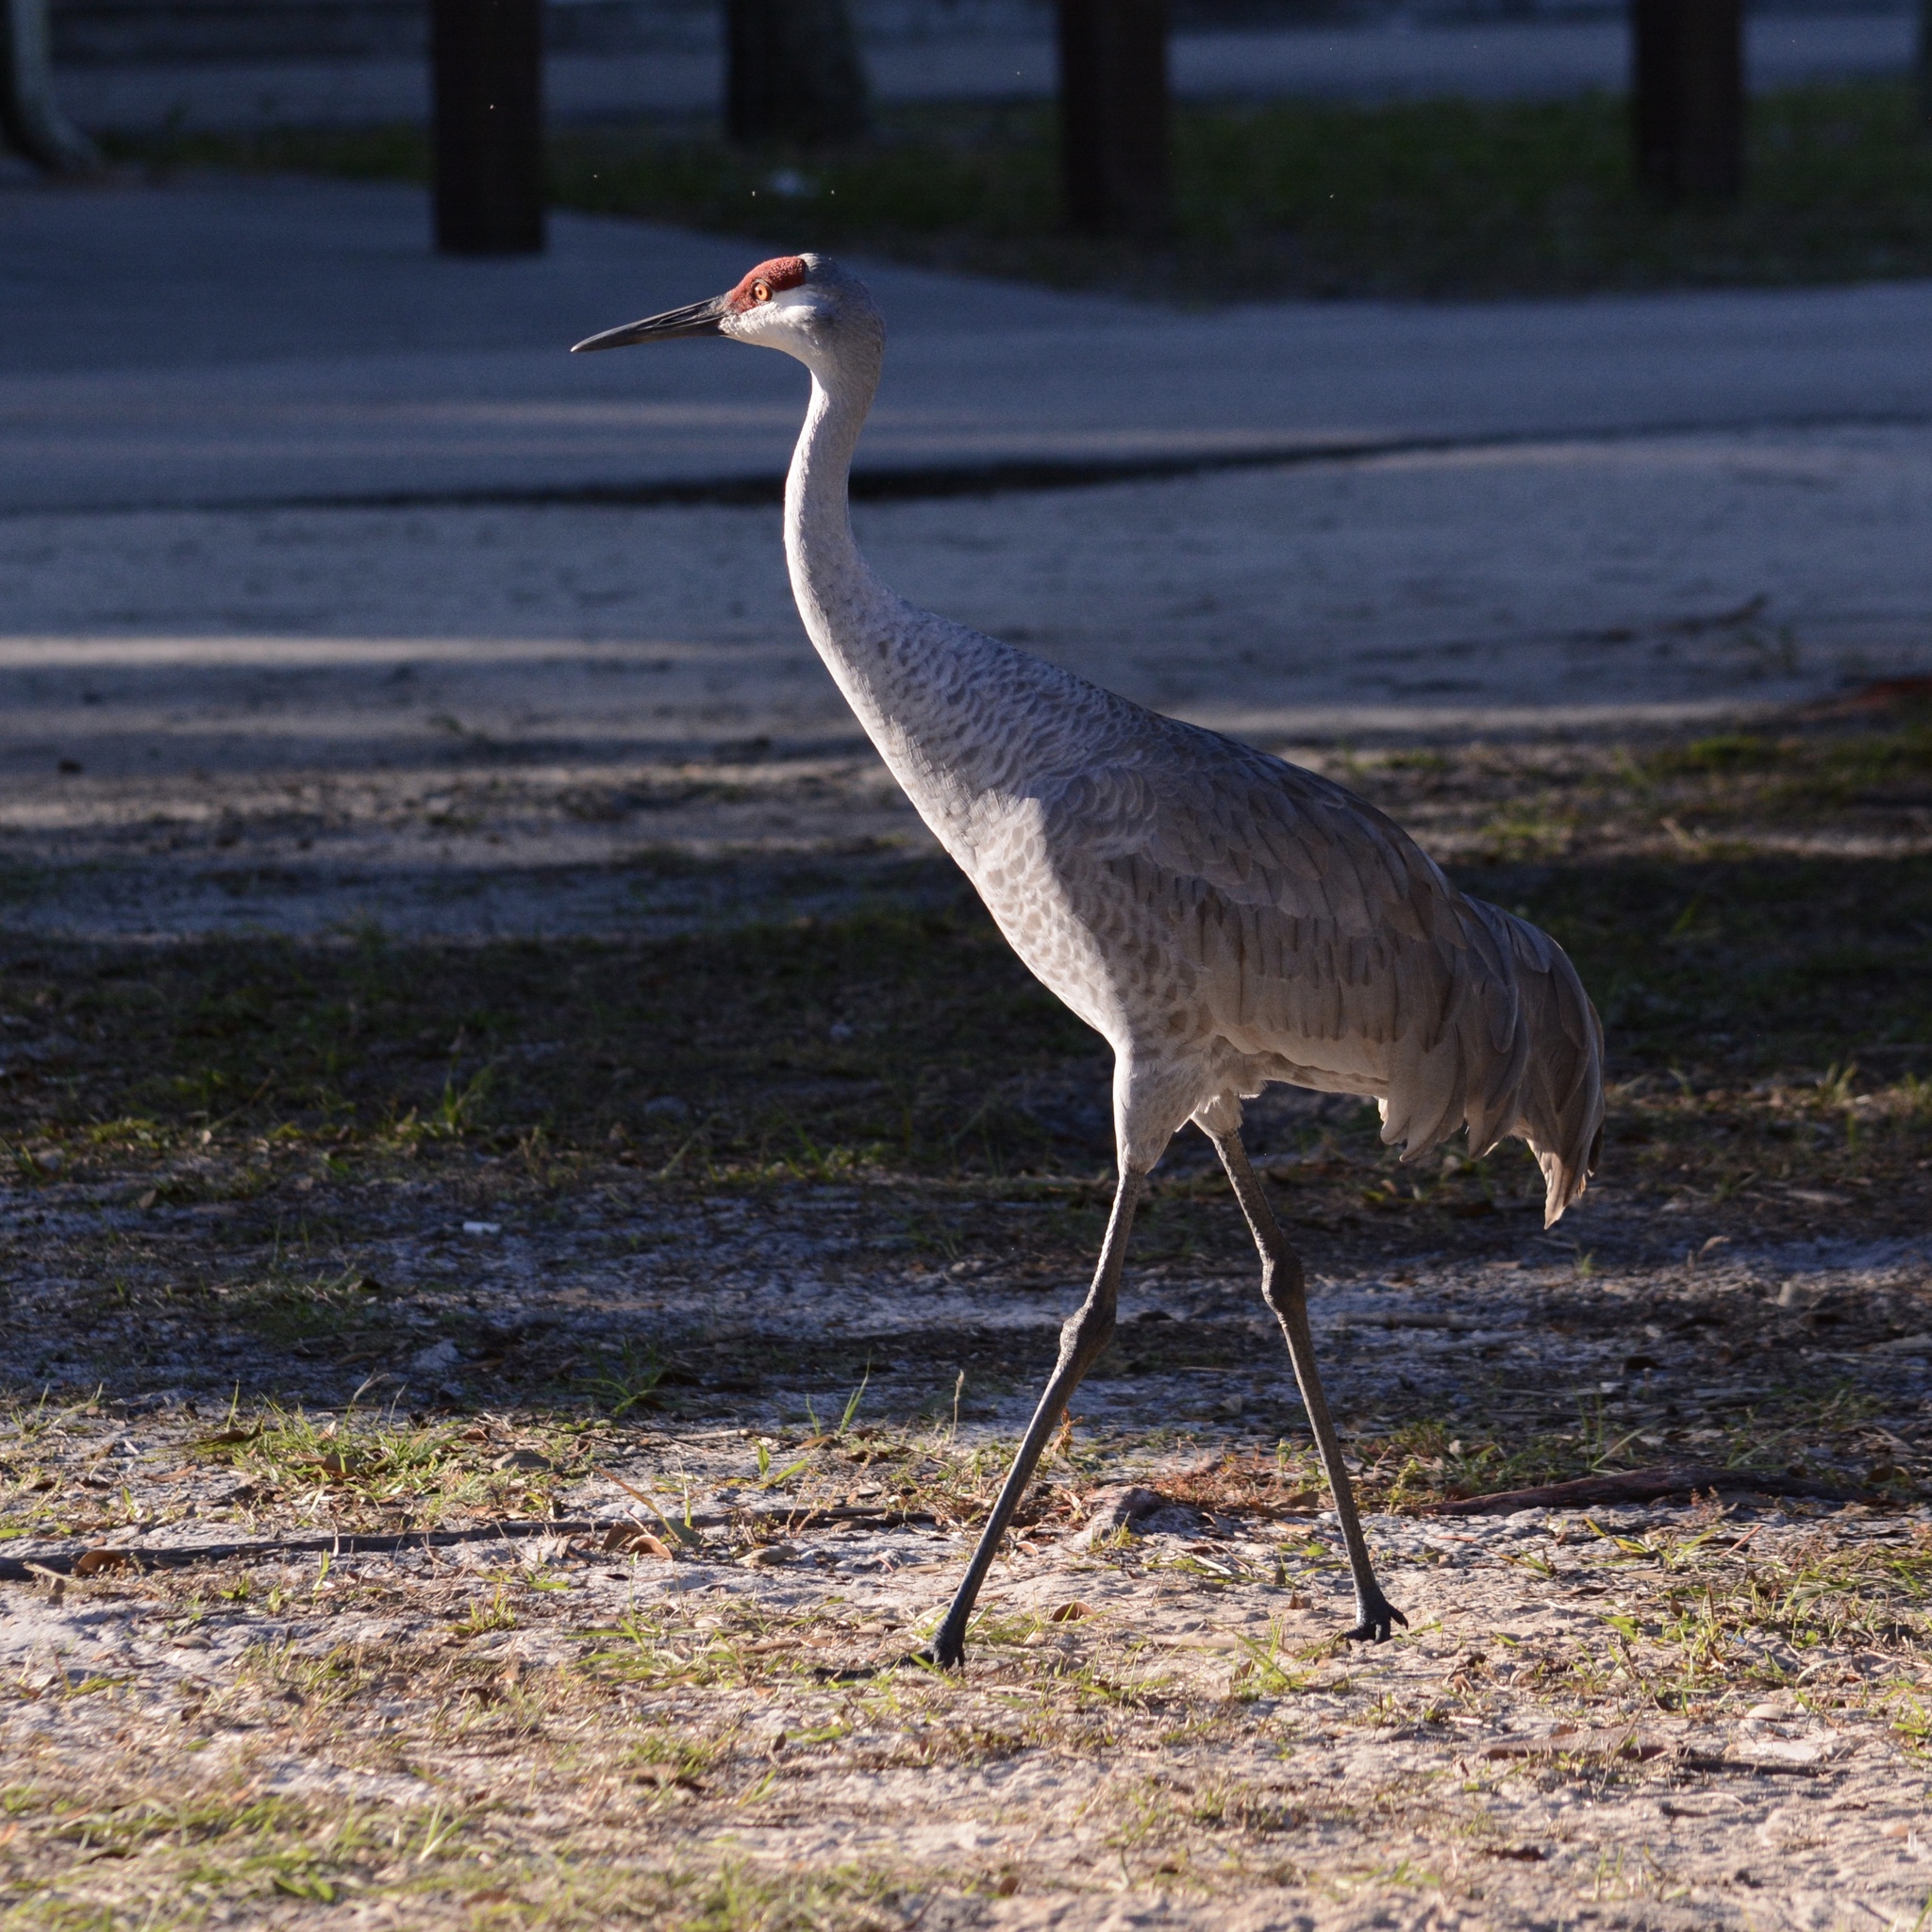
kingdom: Animalia
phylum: Chordata
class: Aves
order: Gruiformes
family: Gruidae
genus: Grus
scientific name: Grus canadensis
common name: Sandhill crane
